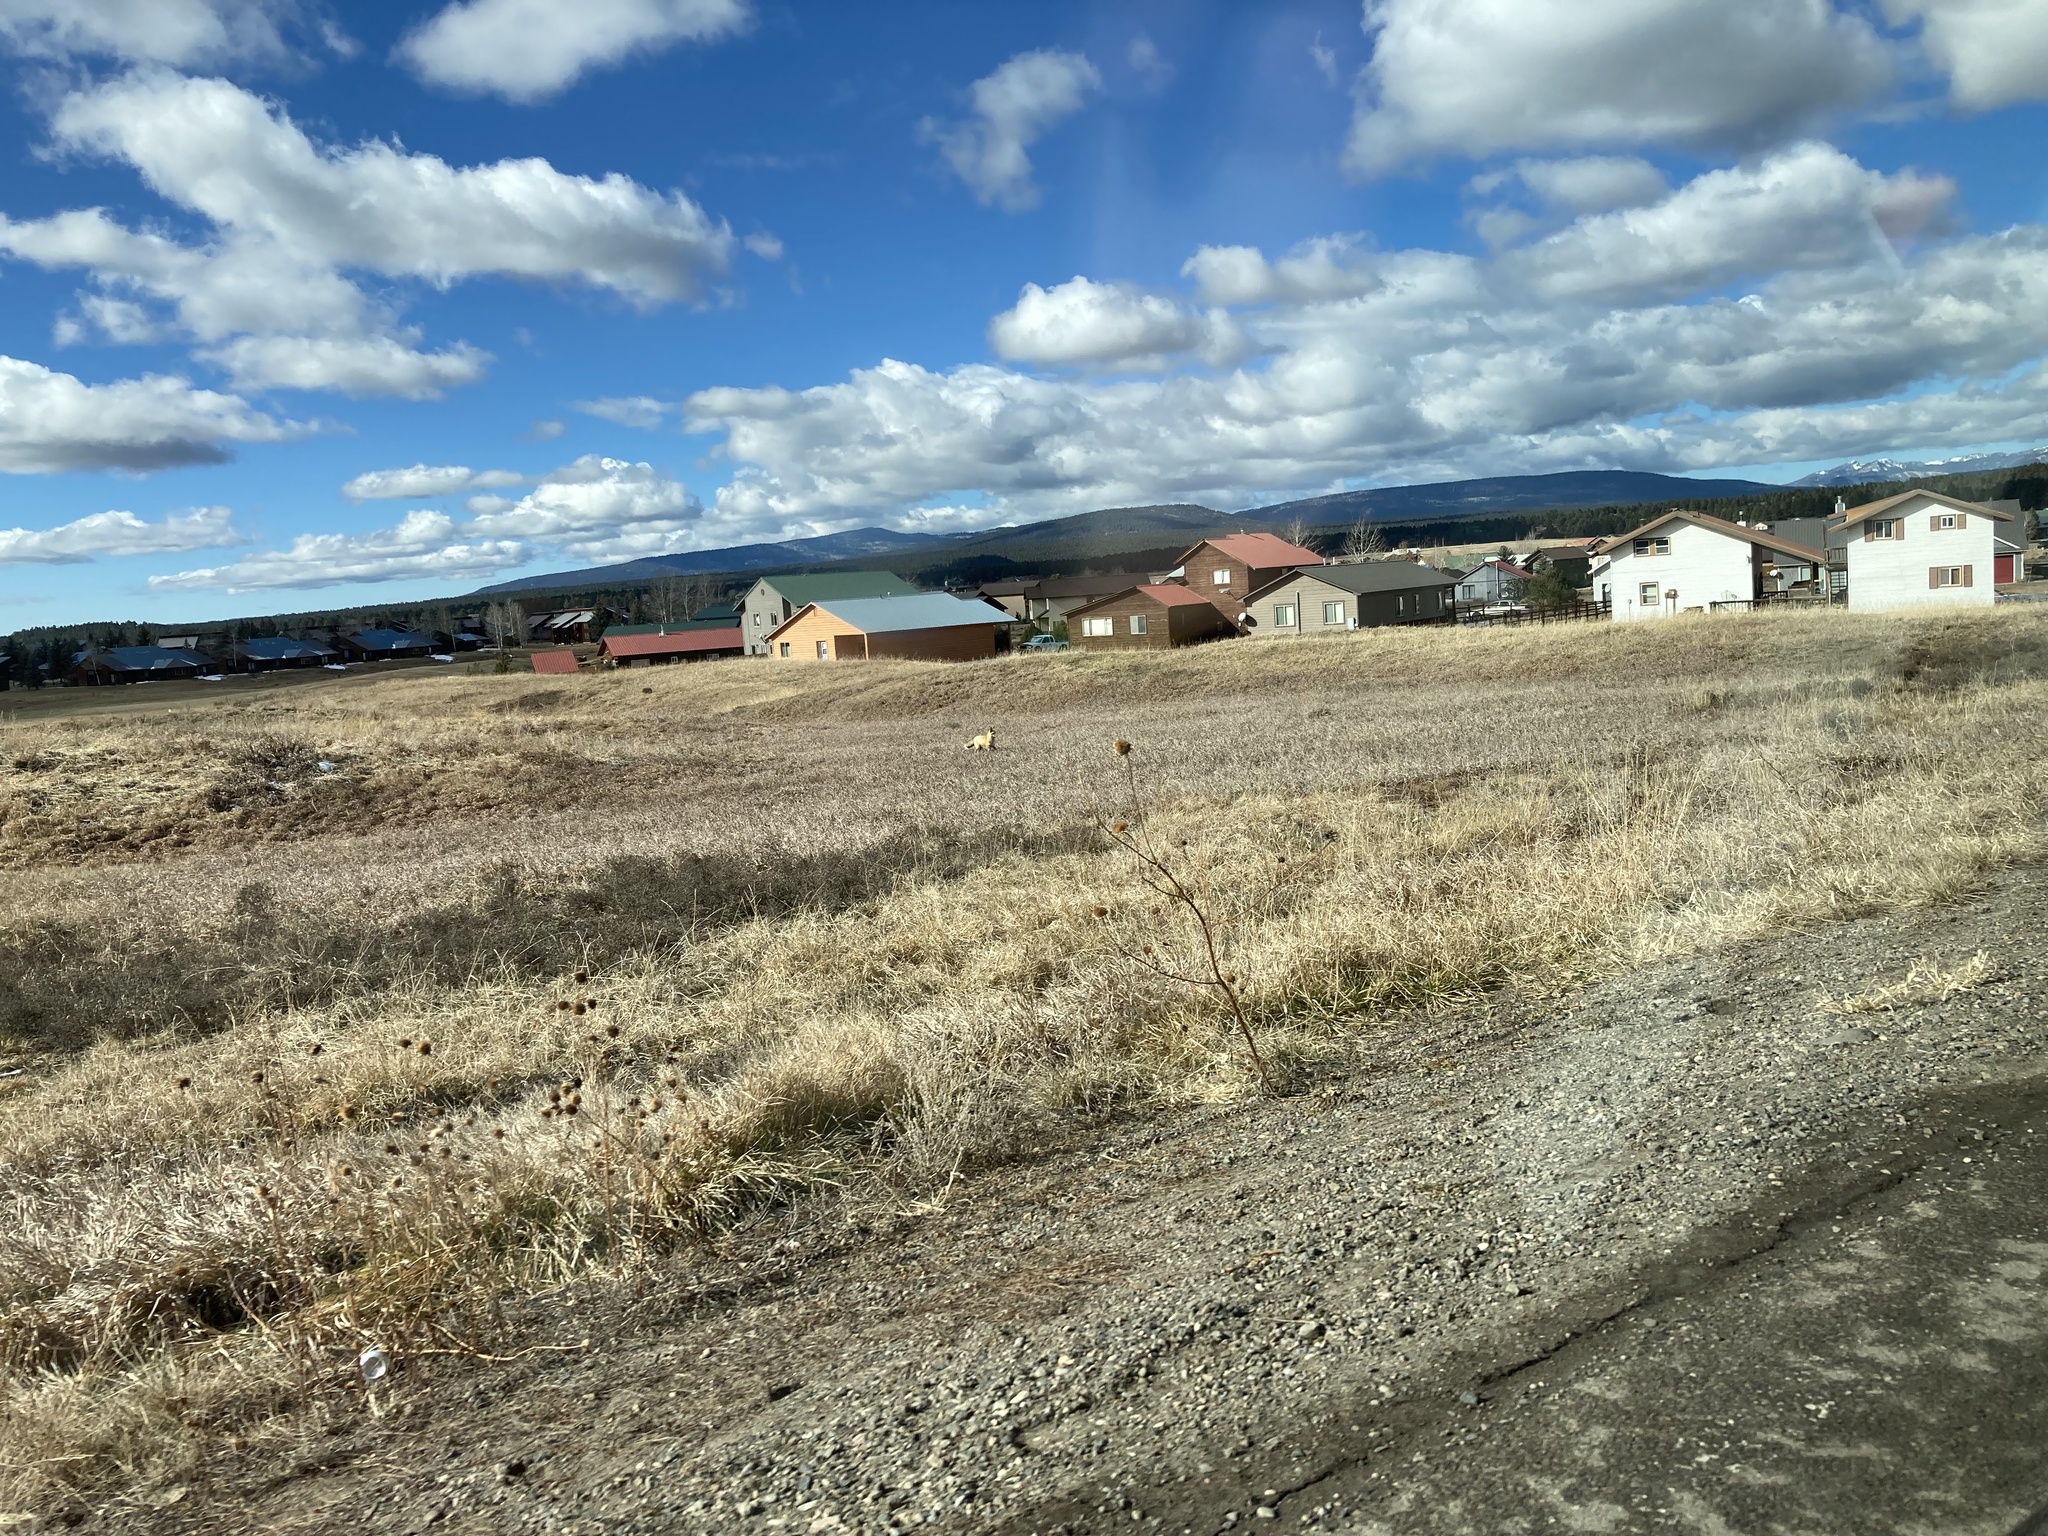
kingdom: Animalia
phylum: Chordata
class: Mammalia
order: Carnivora
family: Canidae
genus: Vulpes
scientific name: Vulpes vulpes
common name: Red fox
